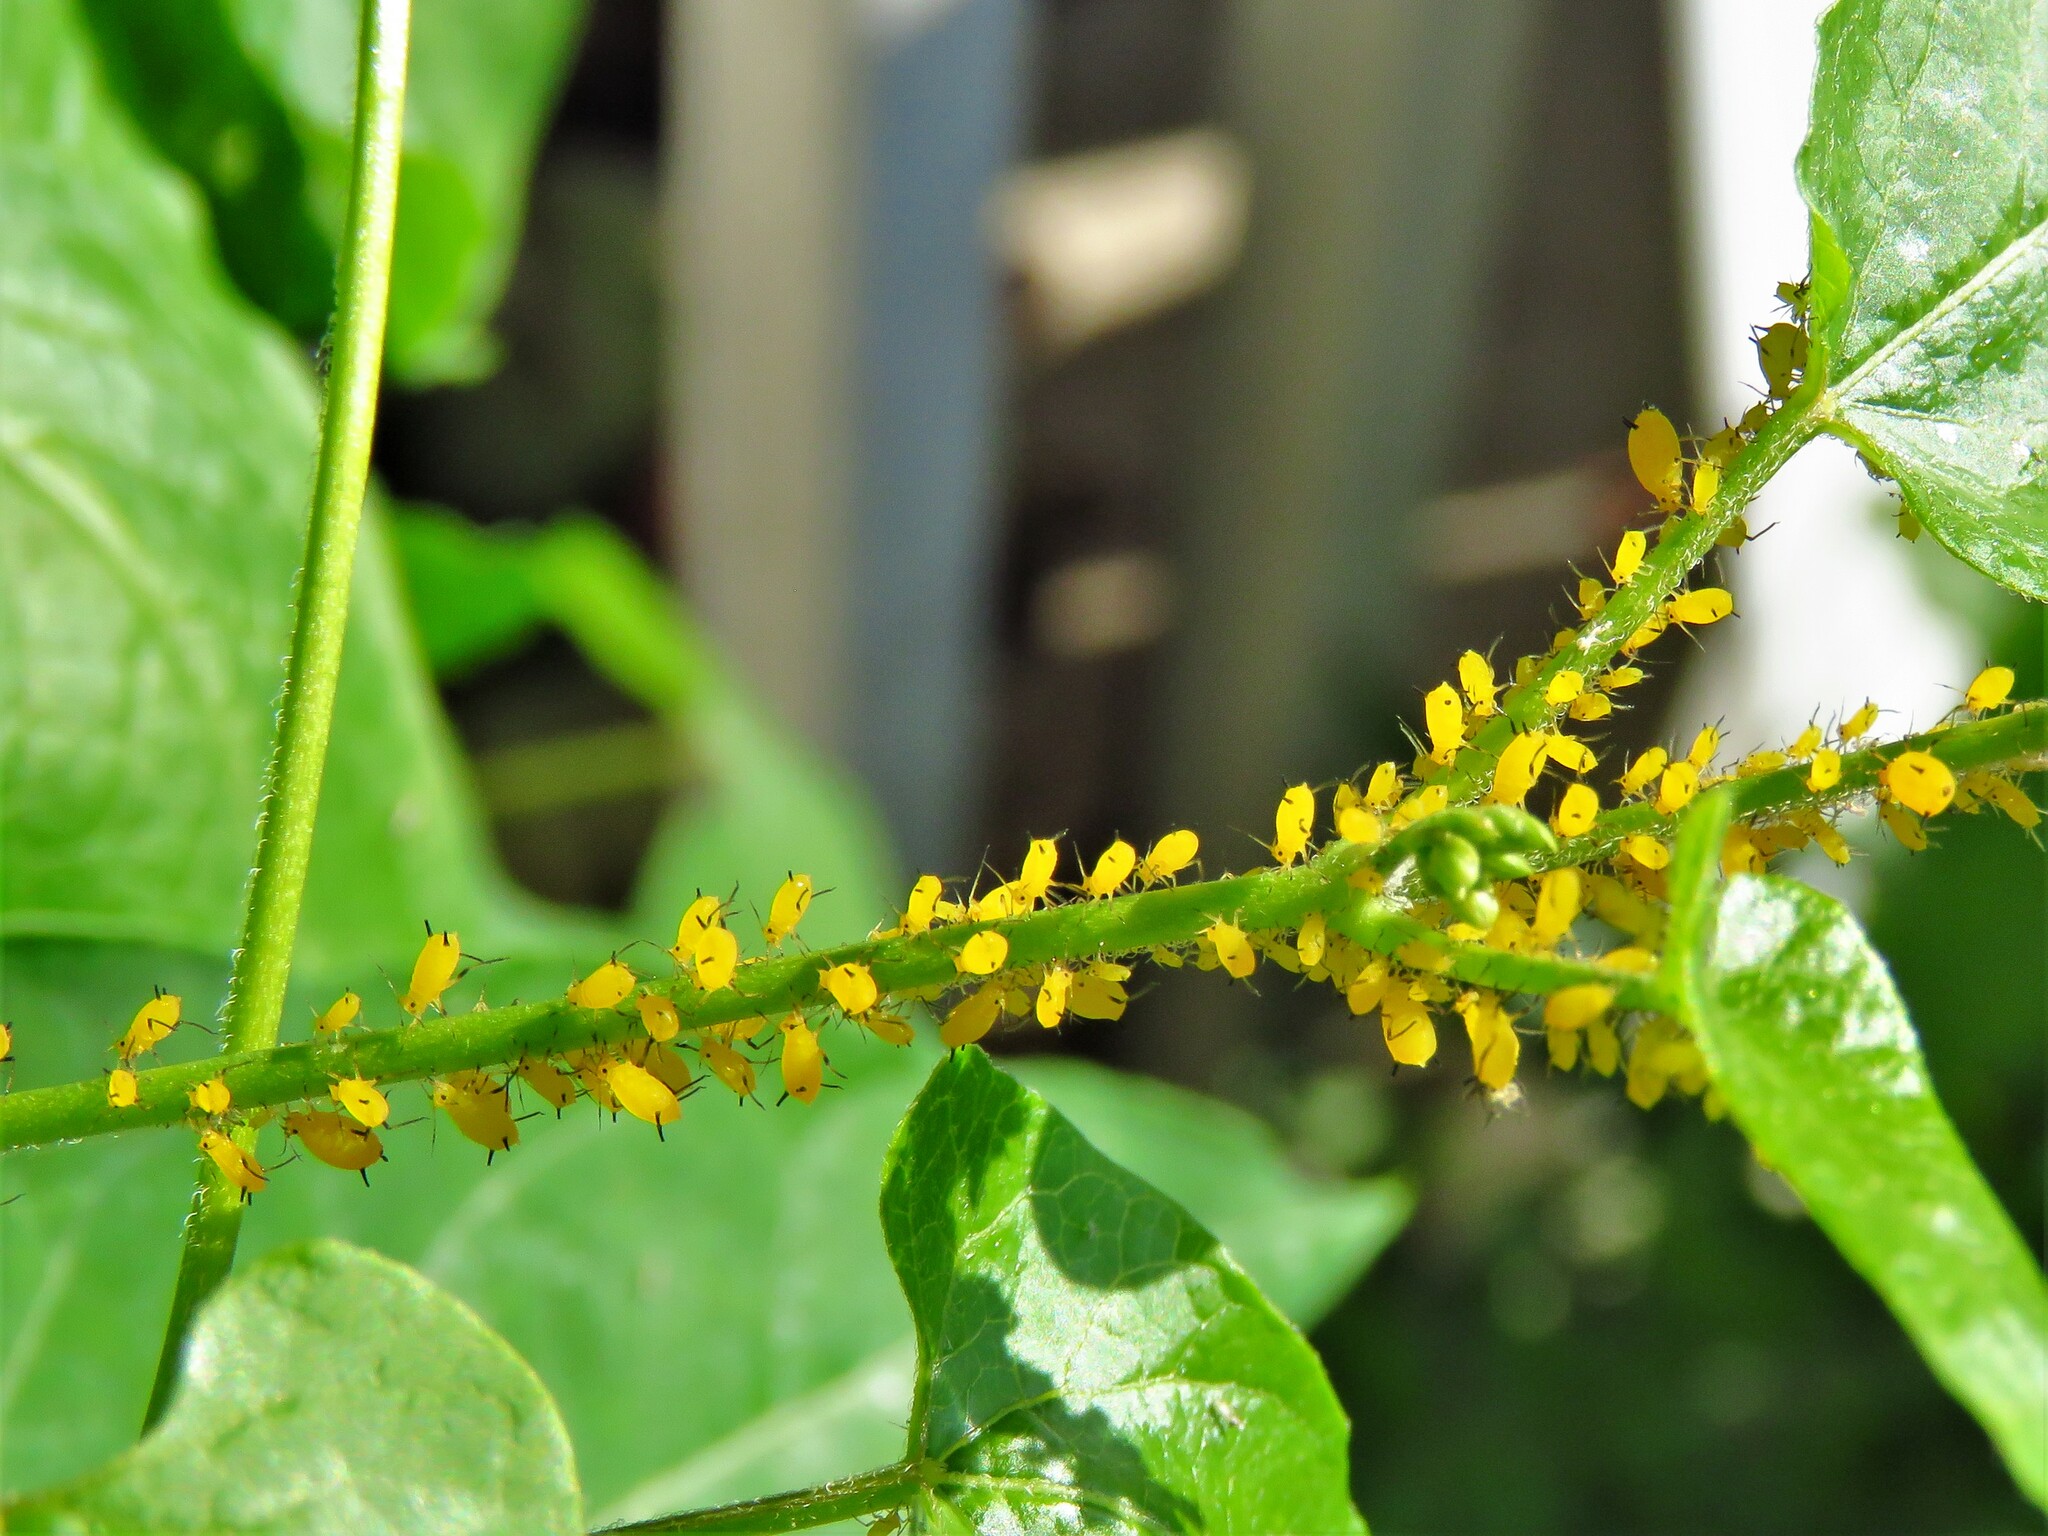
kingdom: Animalia
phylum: Arthropoda
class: Insecta
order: Hemiptera
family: Aphididae
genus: Aphis
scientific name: Aphis nerii
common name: Oleander aphid
